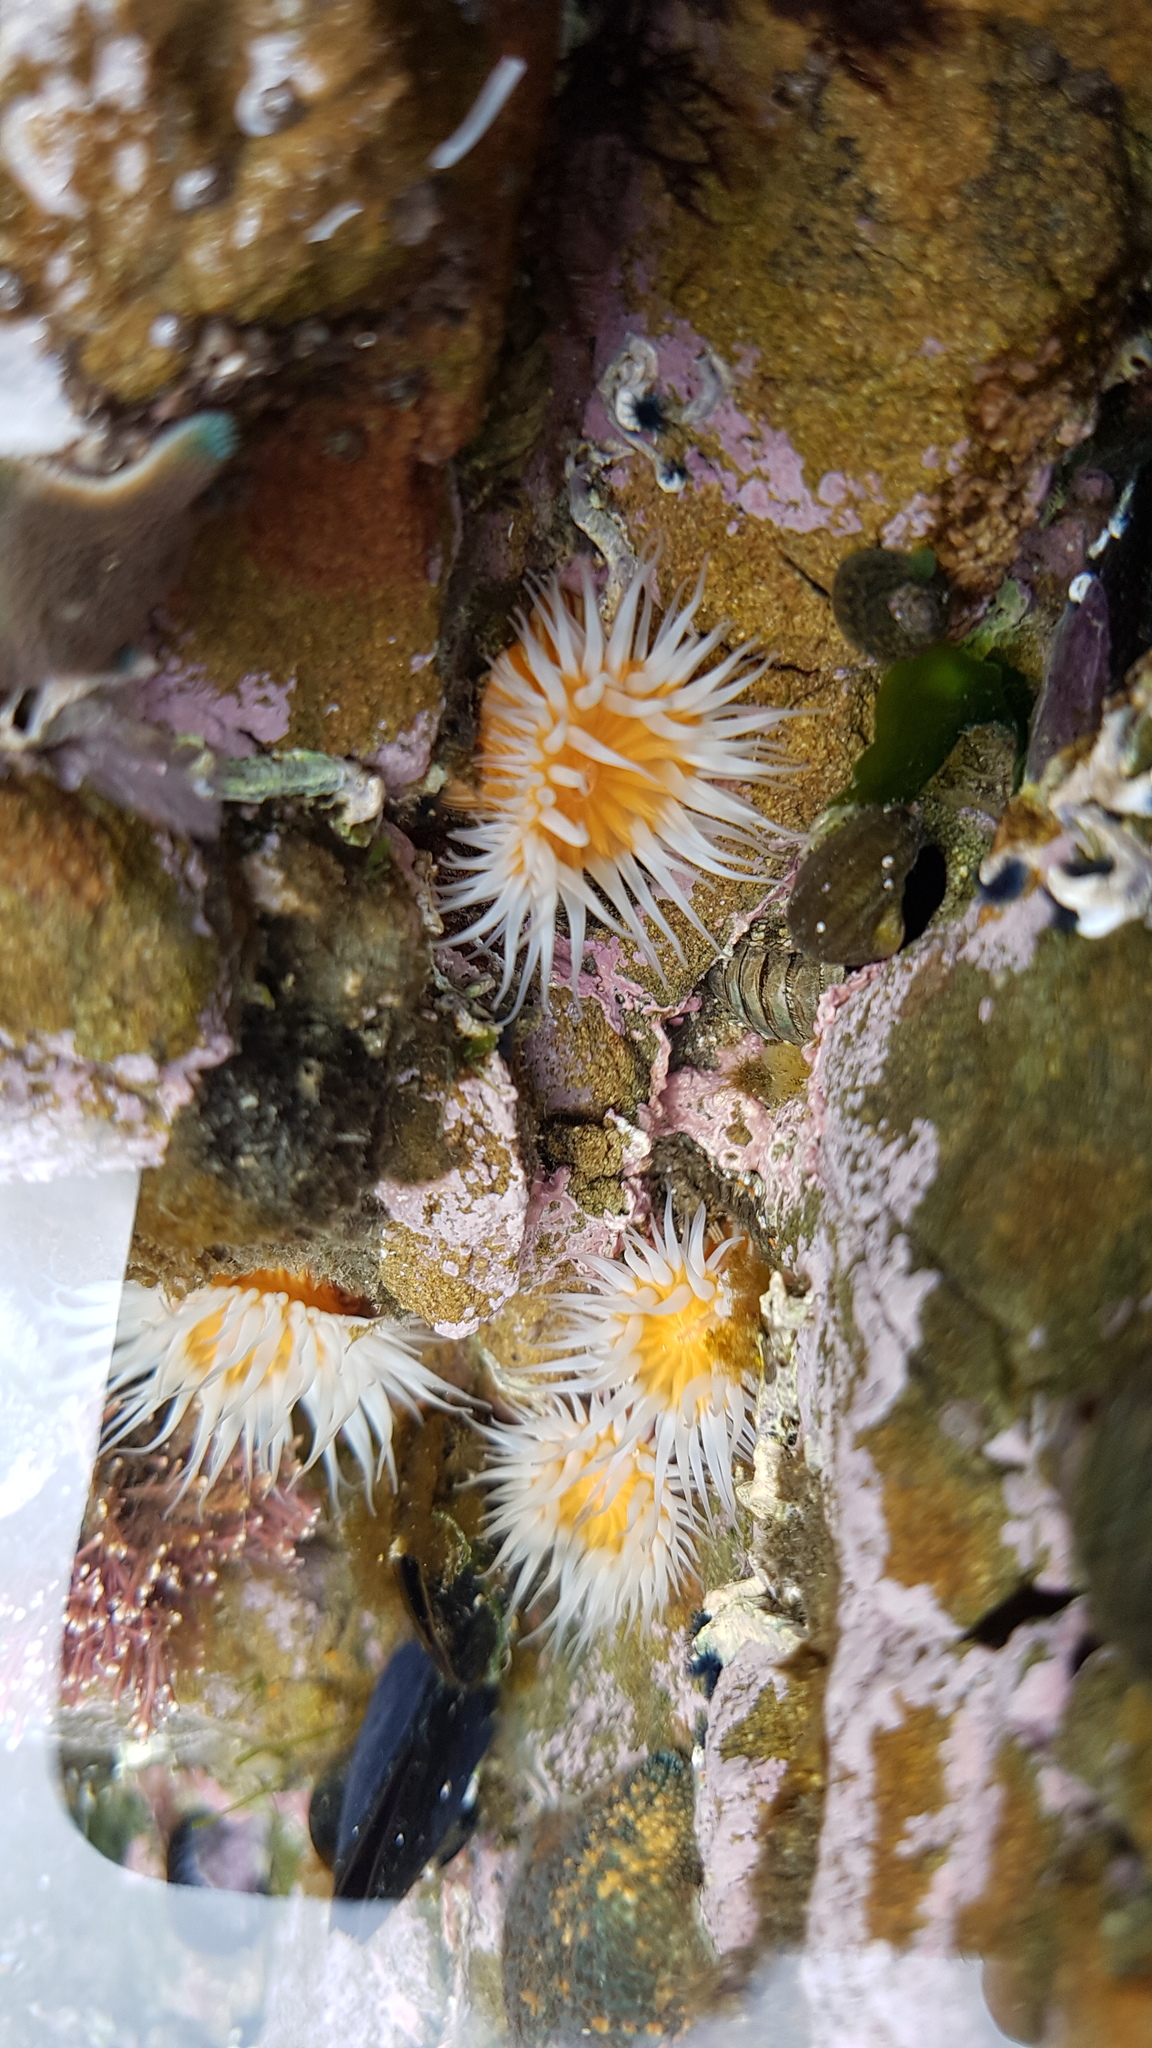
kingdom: Animalia
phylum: Cnidaria
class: Anthozoa
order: Actiniaria
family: Sagartiidae
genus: Anthothoe
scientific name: Anthothoe albocincta
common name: Orange striped anemone
